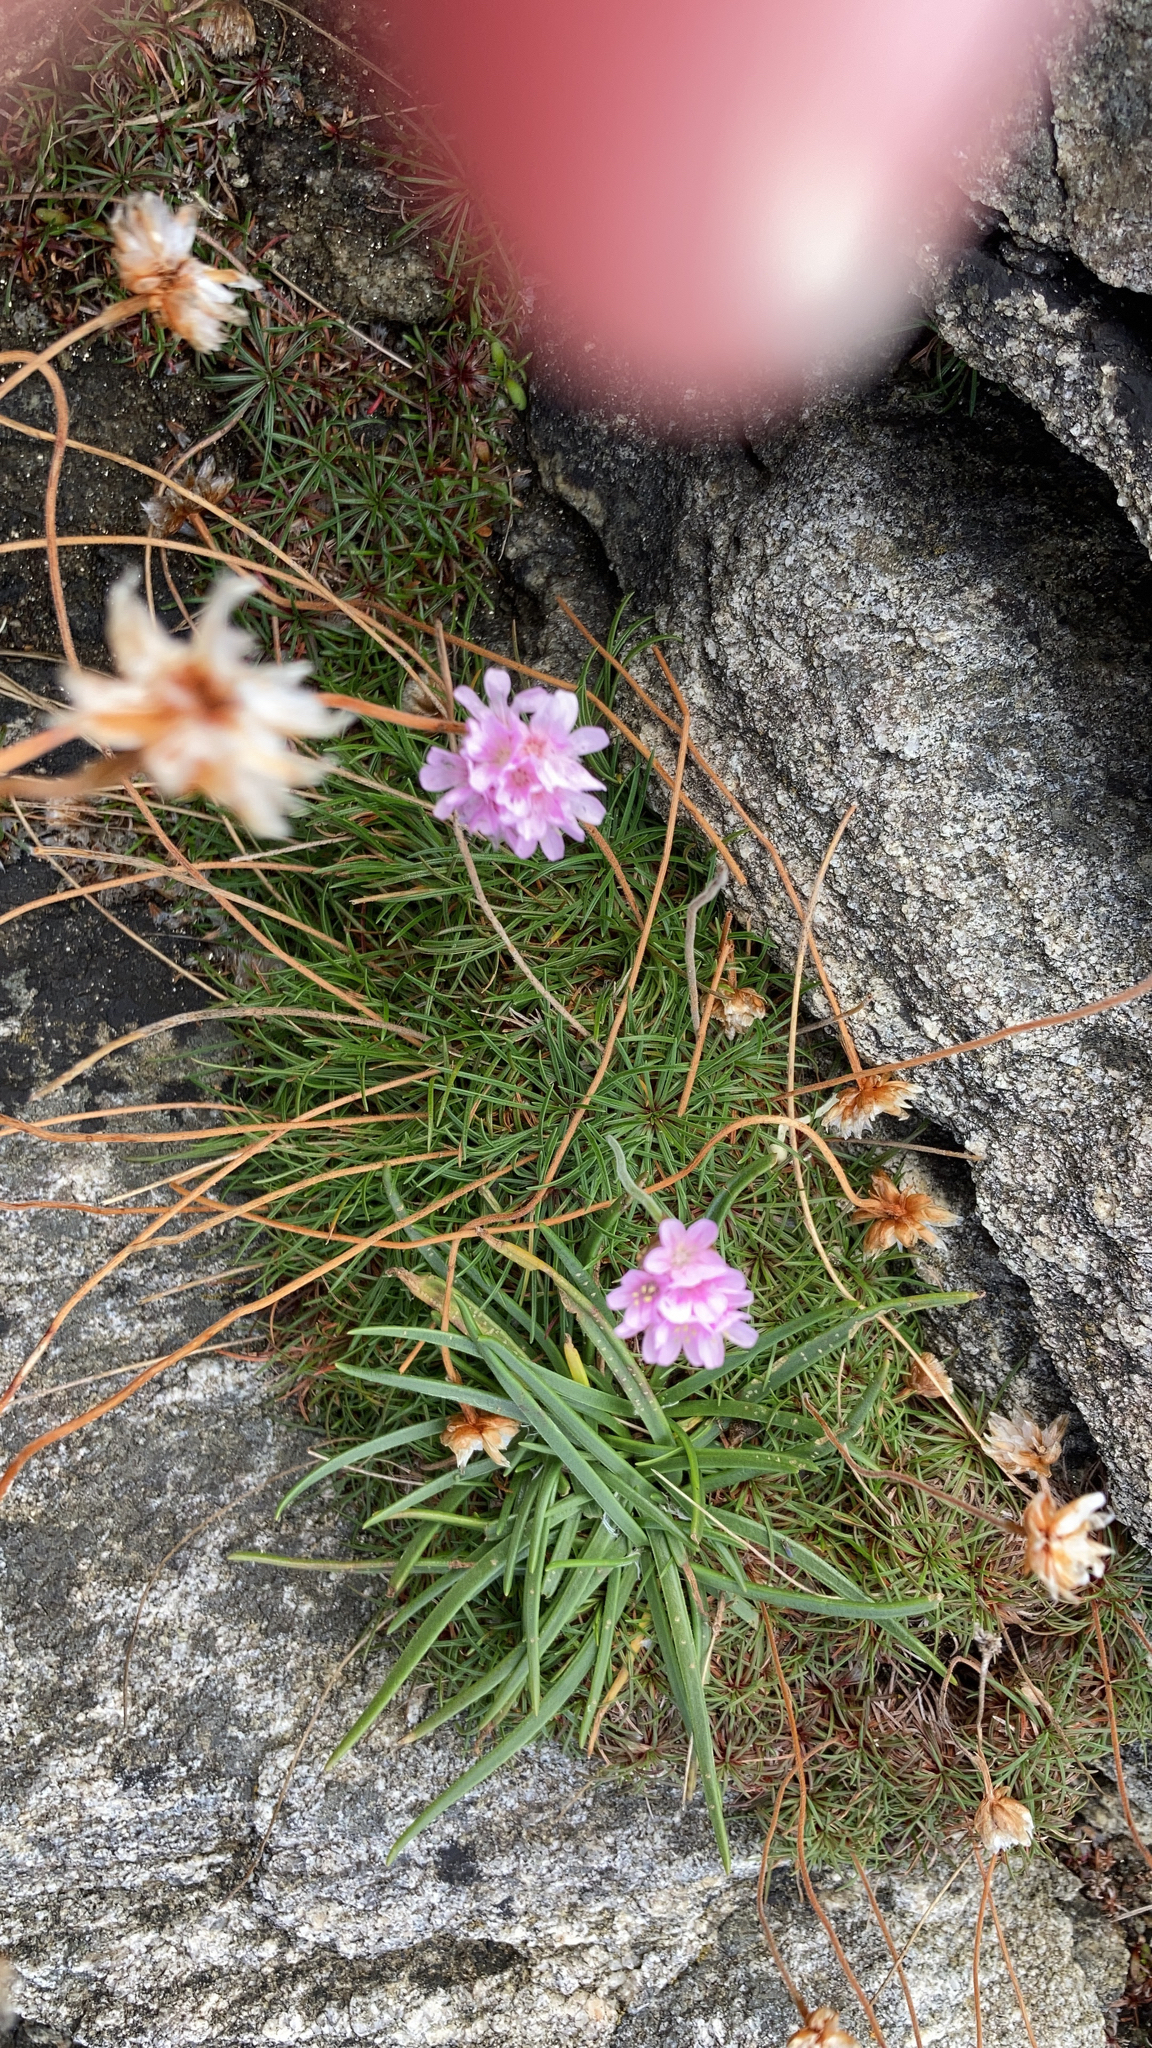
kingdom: Plantae
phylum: Tracheophyta
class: Magnoliopsida
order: Caryophyllales
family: Plumbaginaceae
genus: Armeria
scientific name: Armeria maritima
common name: Thrift
